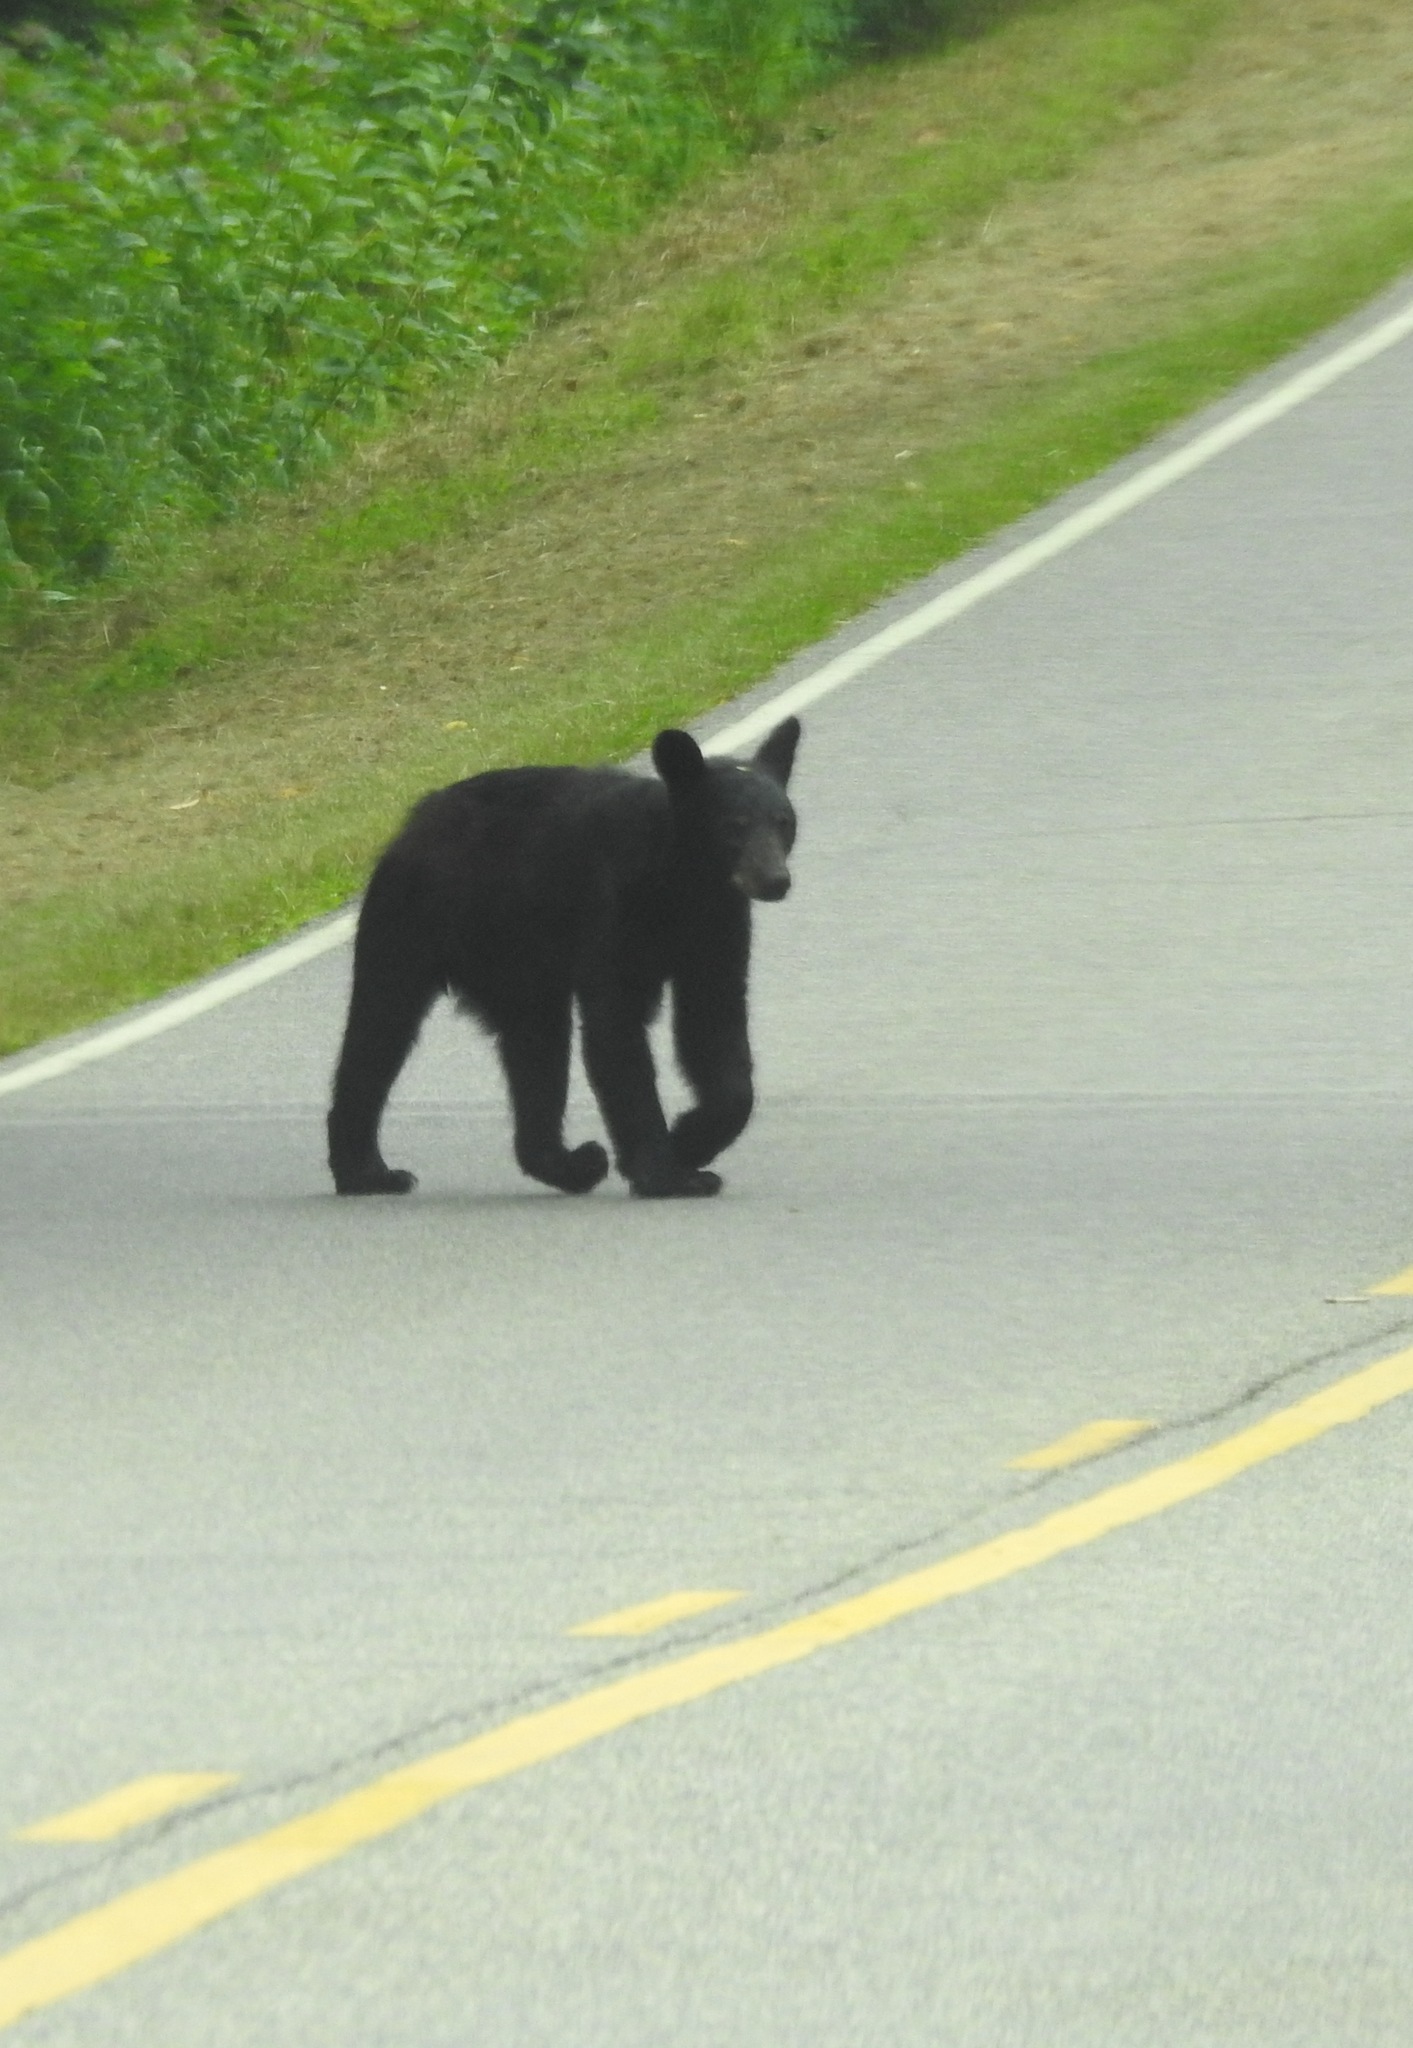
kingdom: Animalia
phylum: Chordata
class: Mammalia
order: Carnivora
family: Ursidae
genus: Ursus
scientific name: Ursus americanus
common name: American black bear
